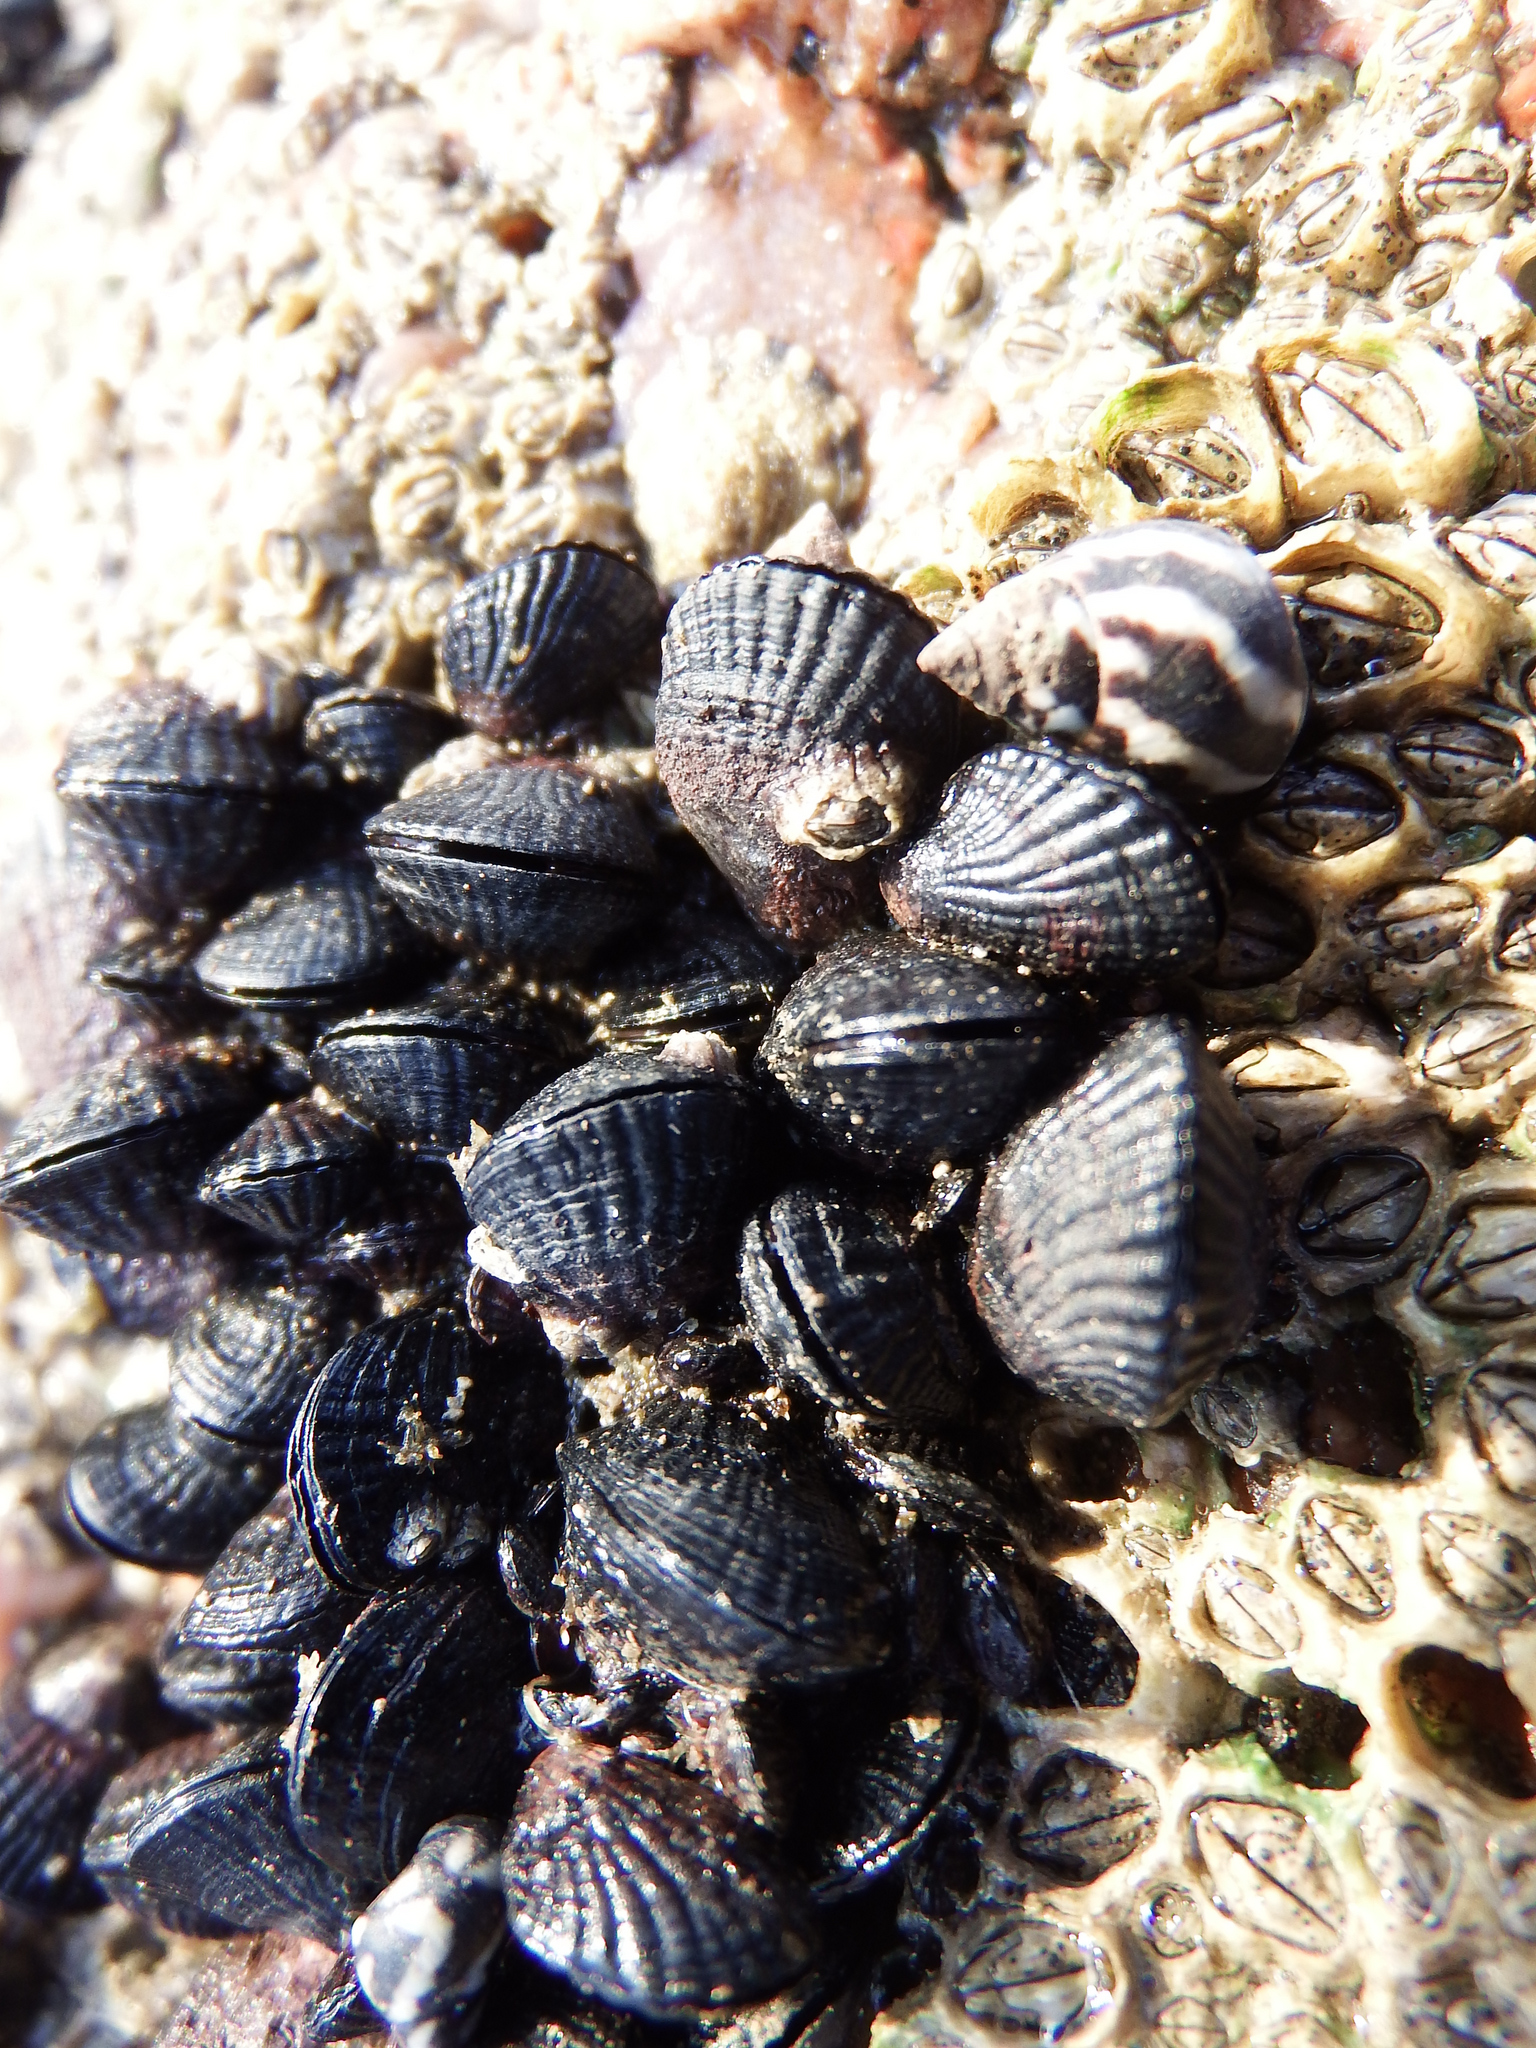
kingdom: Animalia
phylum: Mollusca
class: Bivalvia
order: Mytilida
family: Mytilidae
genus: Perumytilus
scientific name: Perumytilus purpuratus
